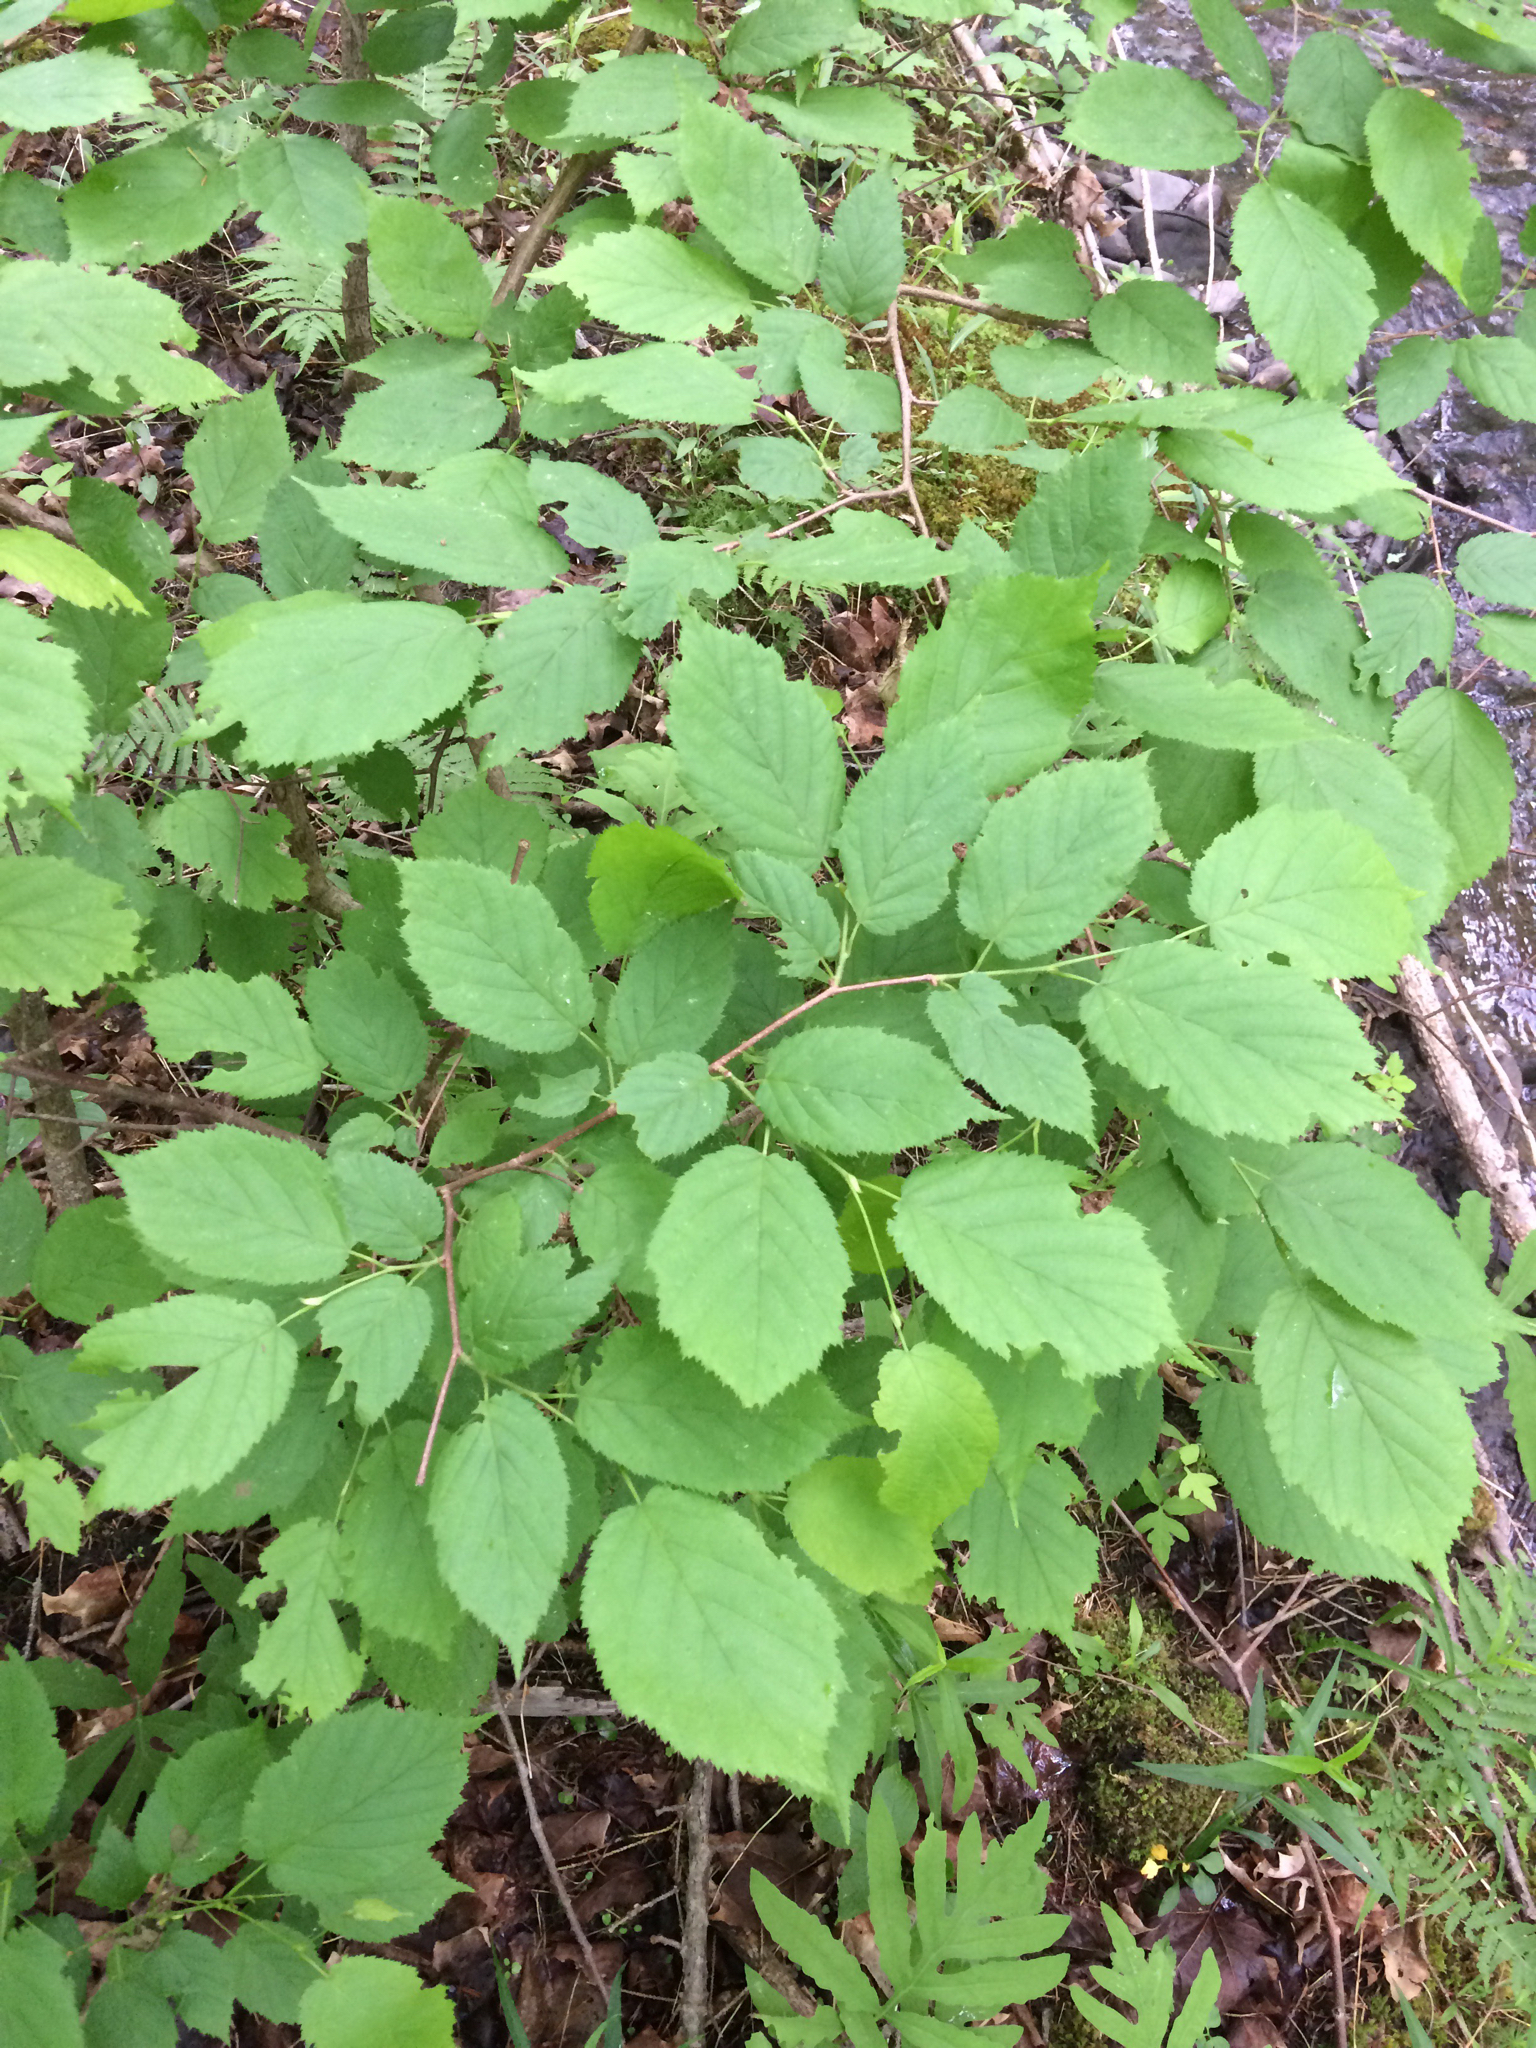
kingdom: Plantae
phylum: Tracheophyta
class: Magnoliopsida
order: Fagales
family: Betulaceae
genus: Corylus
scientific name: Corylus cornuta
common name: Beaked hazel
